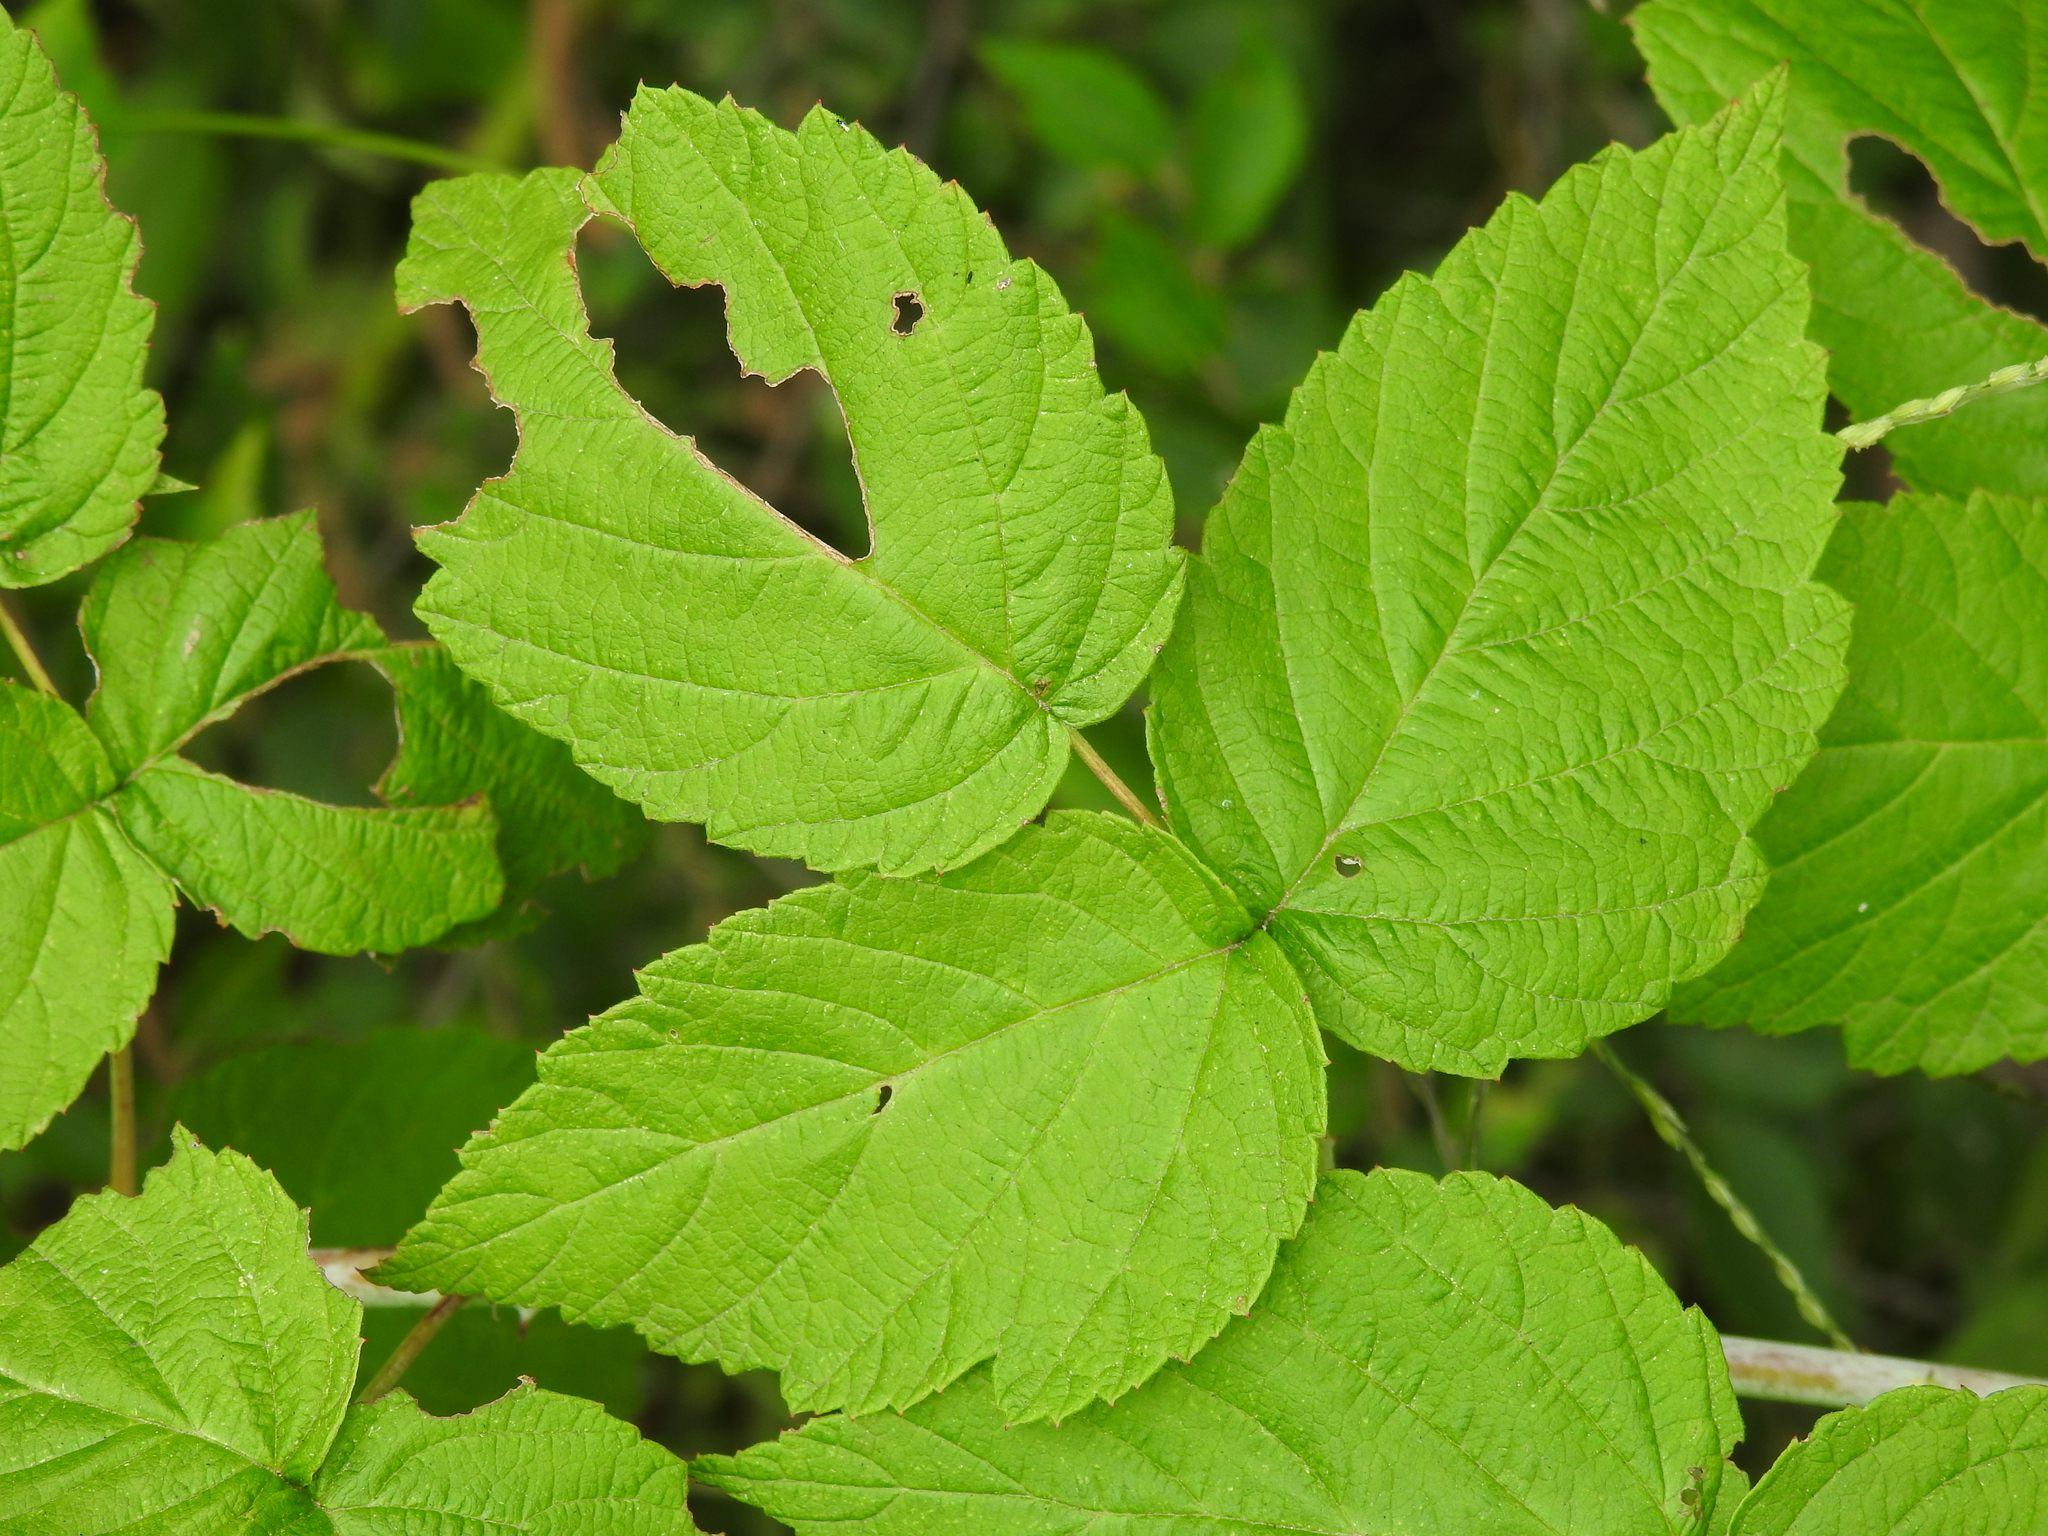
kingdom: Plantae
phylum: Tracheophyta
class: Magnoliopsida
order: Rosales
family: Rosaceae
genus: Rubus
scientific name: Rubus occidentalis
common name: Black raspberry
